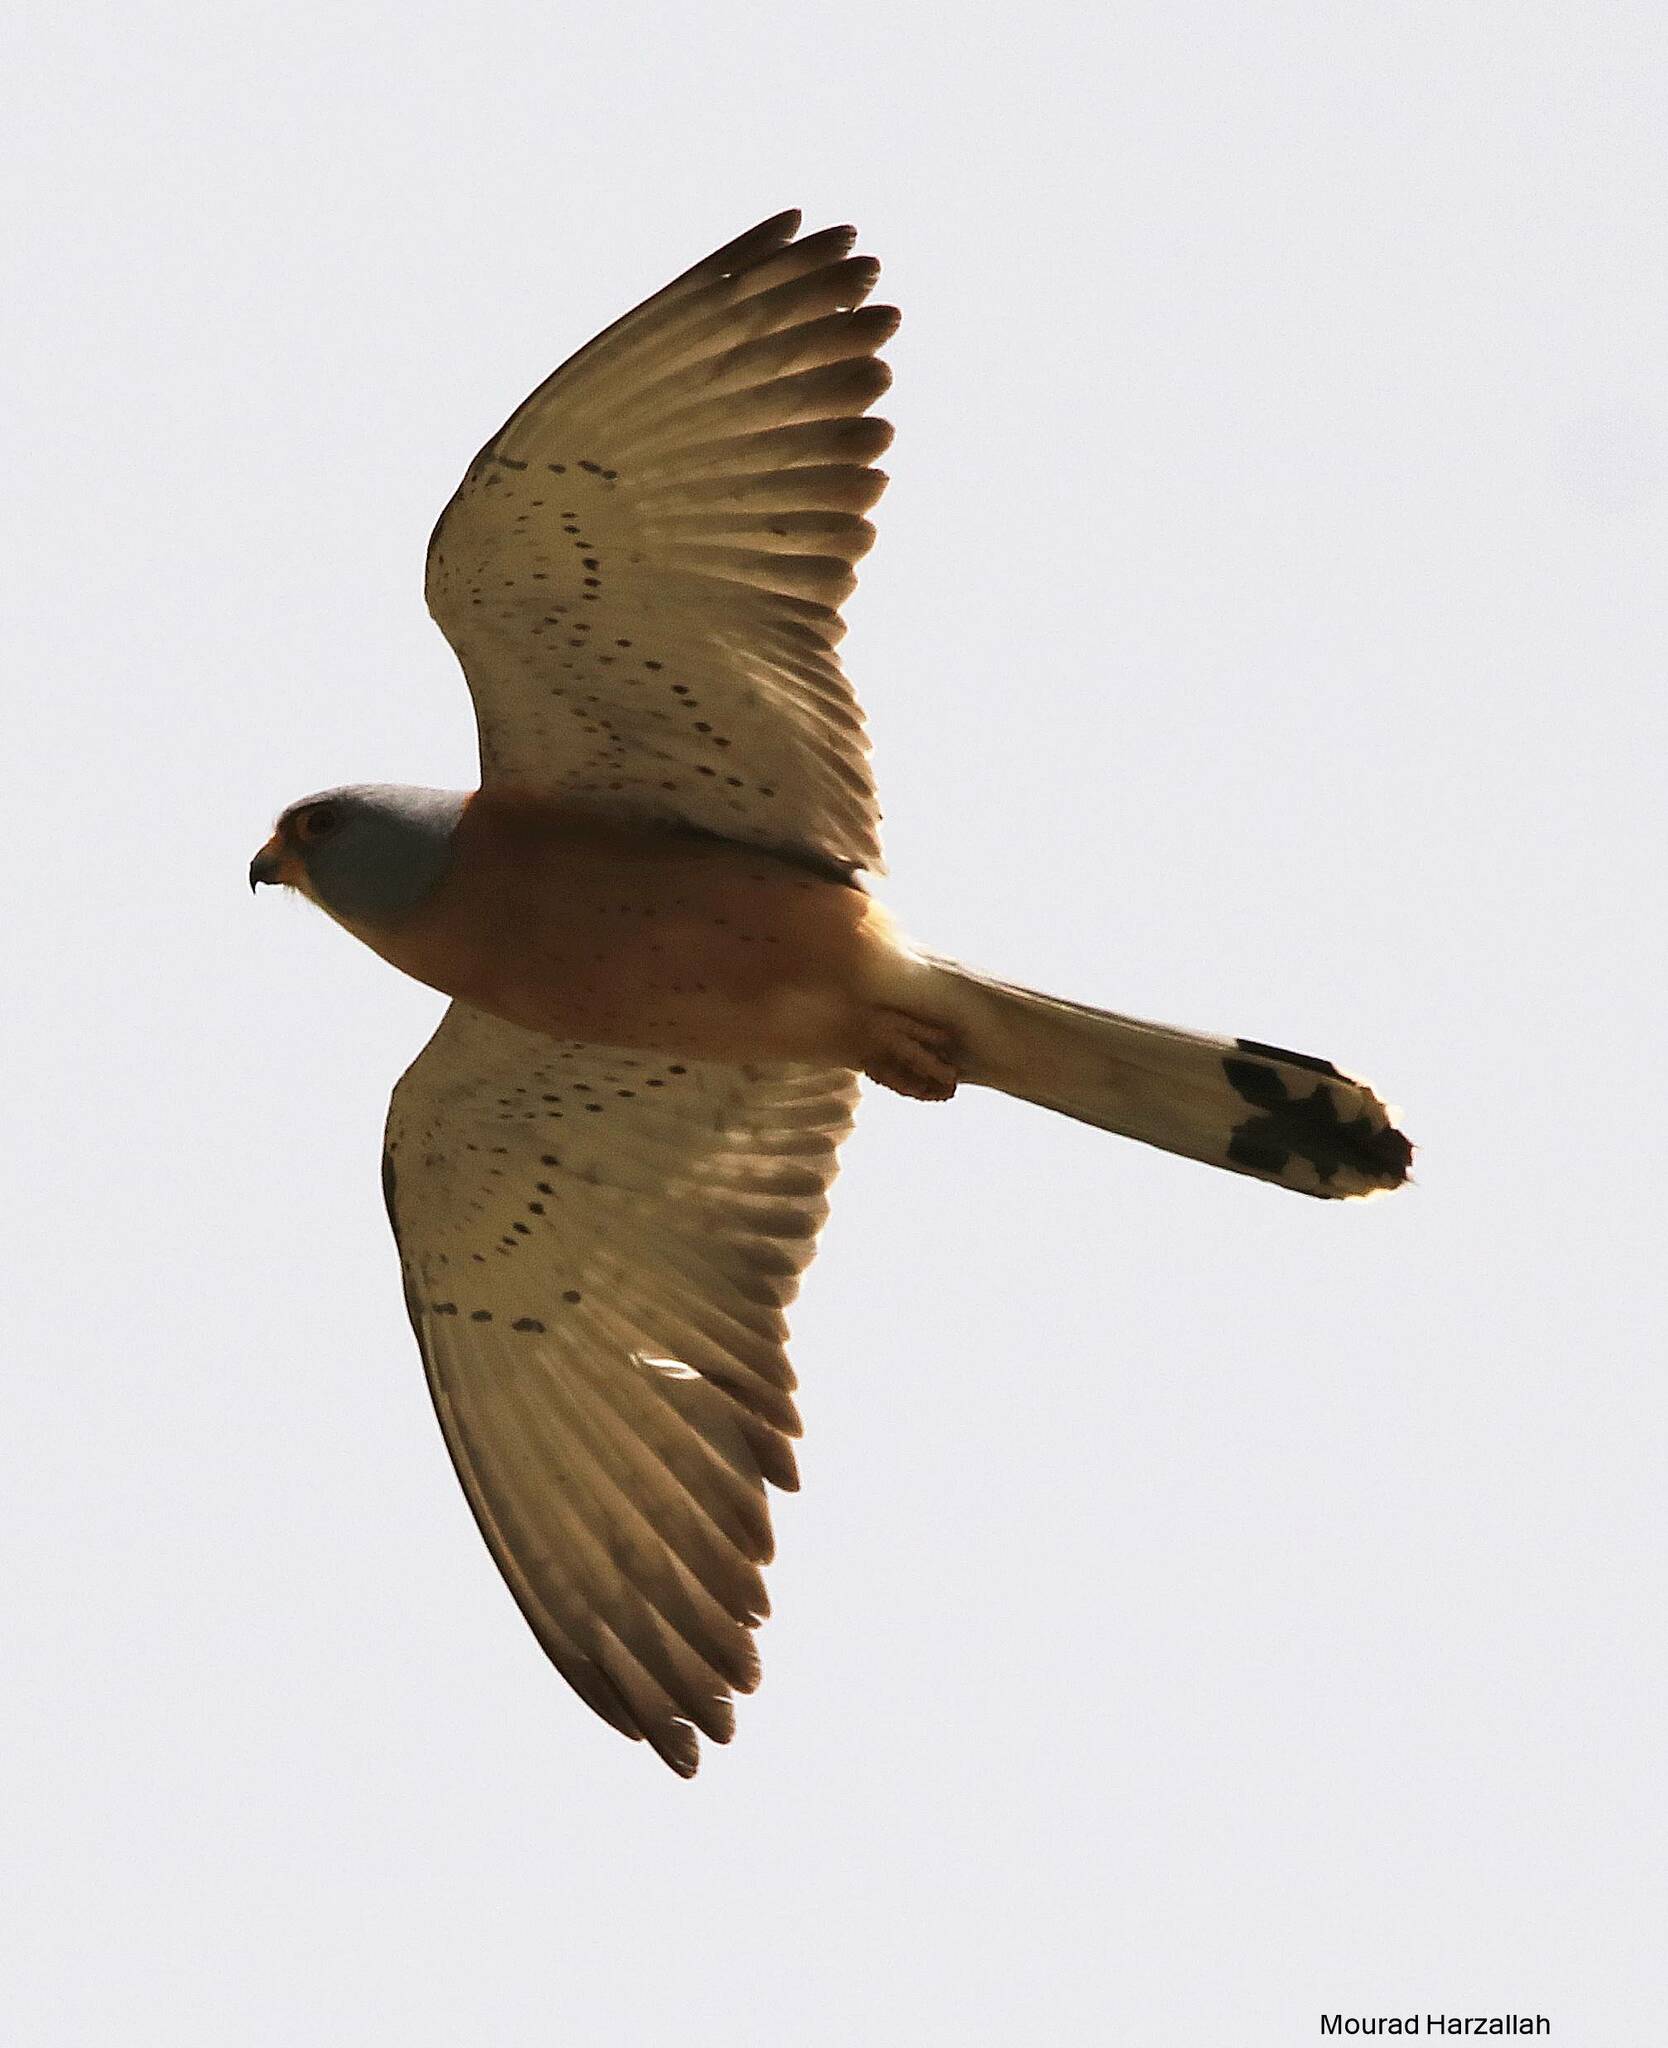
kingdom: Animalia
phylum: Chordata
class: Aves
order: Falconiformes
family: Falconidae
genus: Falco
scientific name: Falco naumanni
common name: Lesser kestrel
